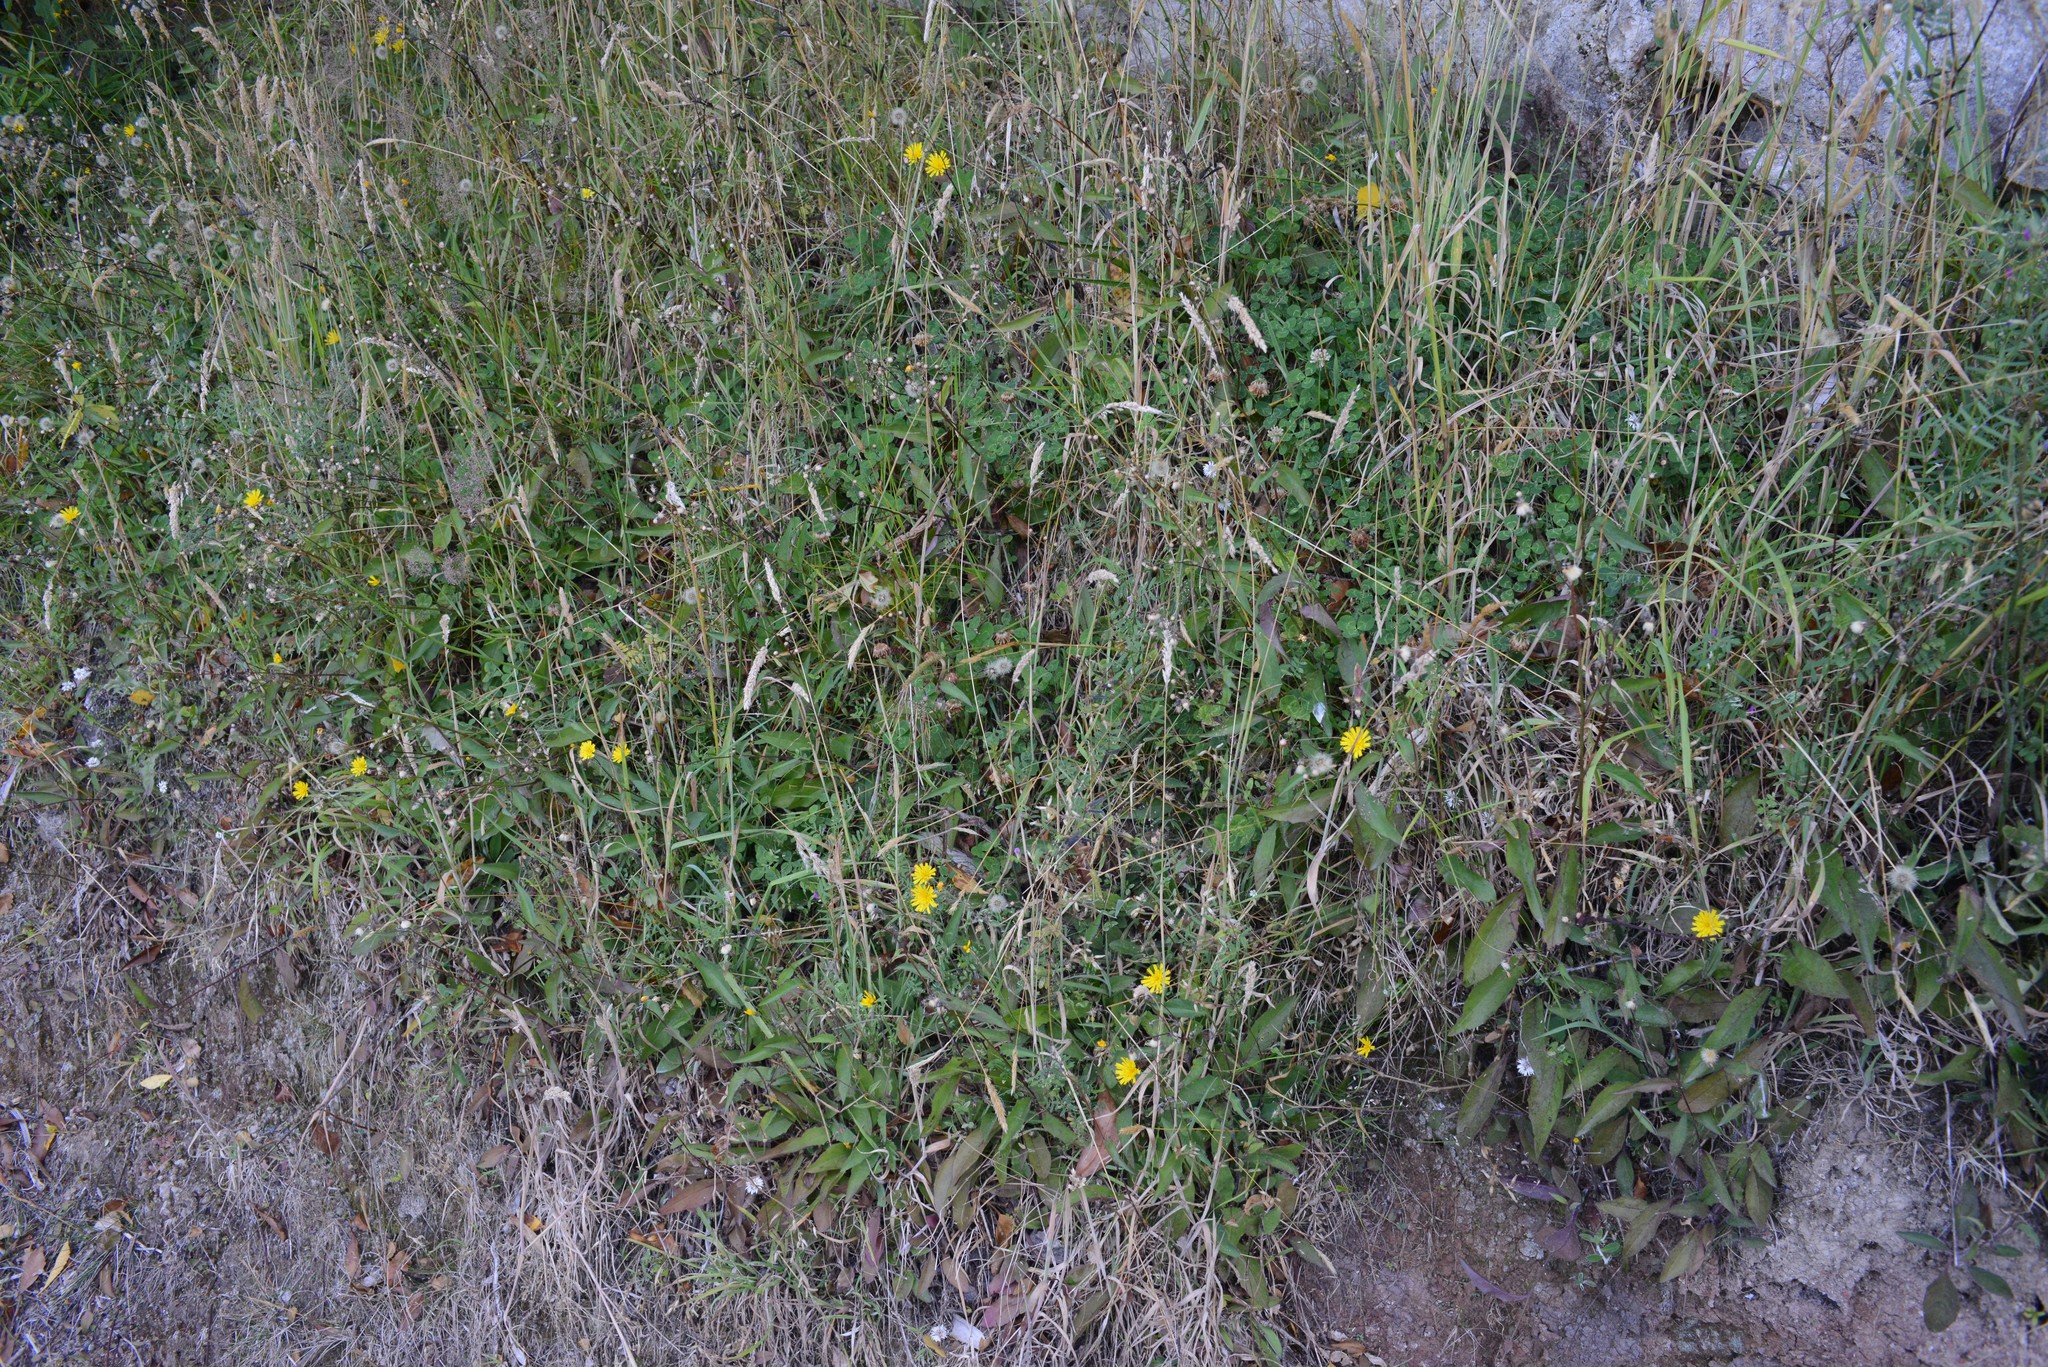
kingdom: Plantae
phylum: Tracheophyta
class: Magnoliopsida
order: Asterales
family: Asteraceae
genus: Hieracium
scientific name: Hieracium lepidulum
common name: Irregular-toothed hawkweed
